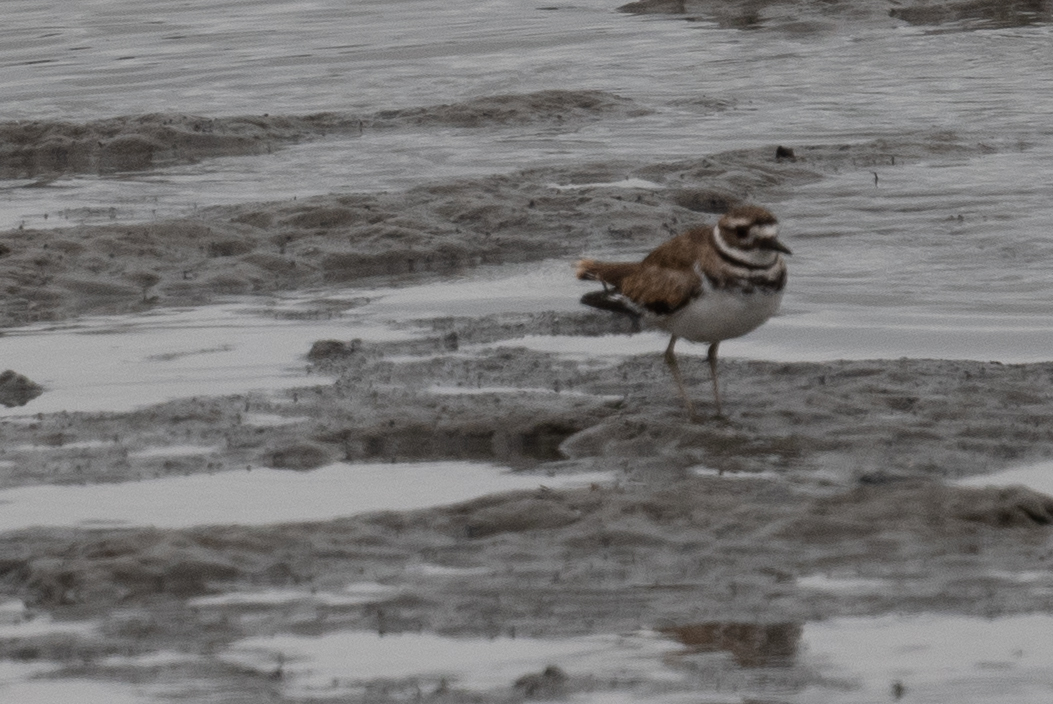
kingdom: Animalia
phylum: Chordata
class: Aves
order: Charadriiformes
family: Charadriidae
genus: Charadrius
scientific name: Charadrius vociferus
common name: Killdeer
